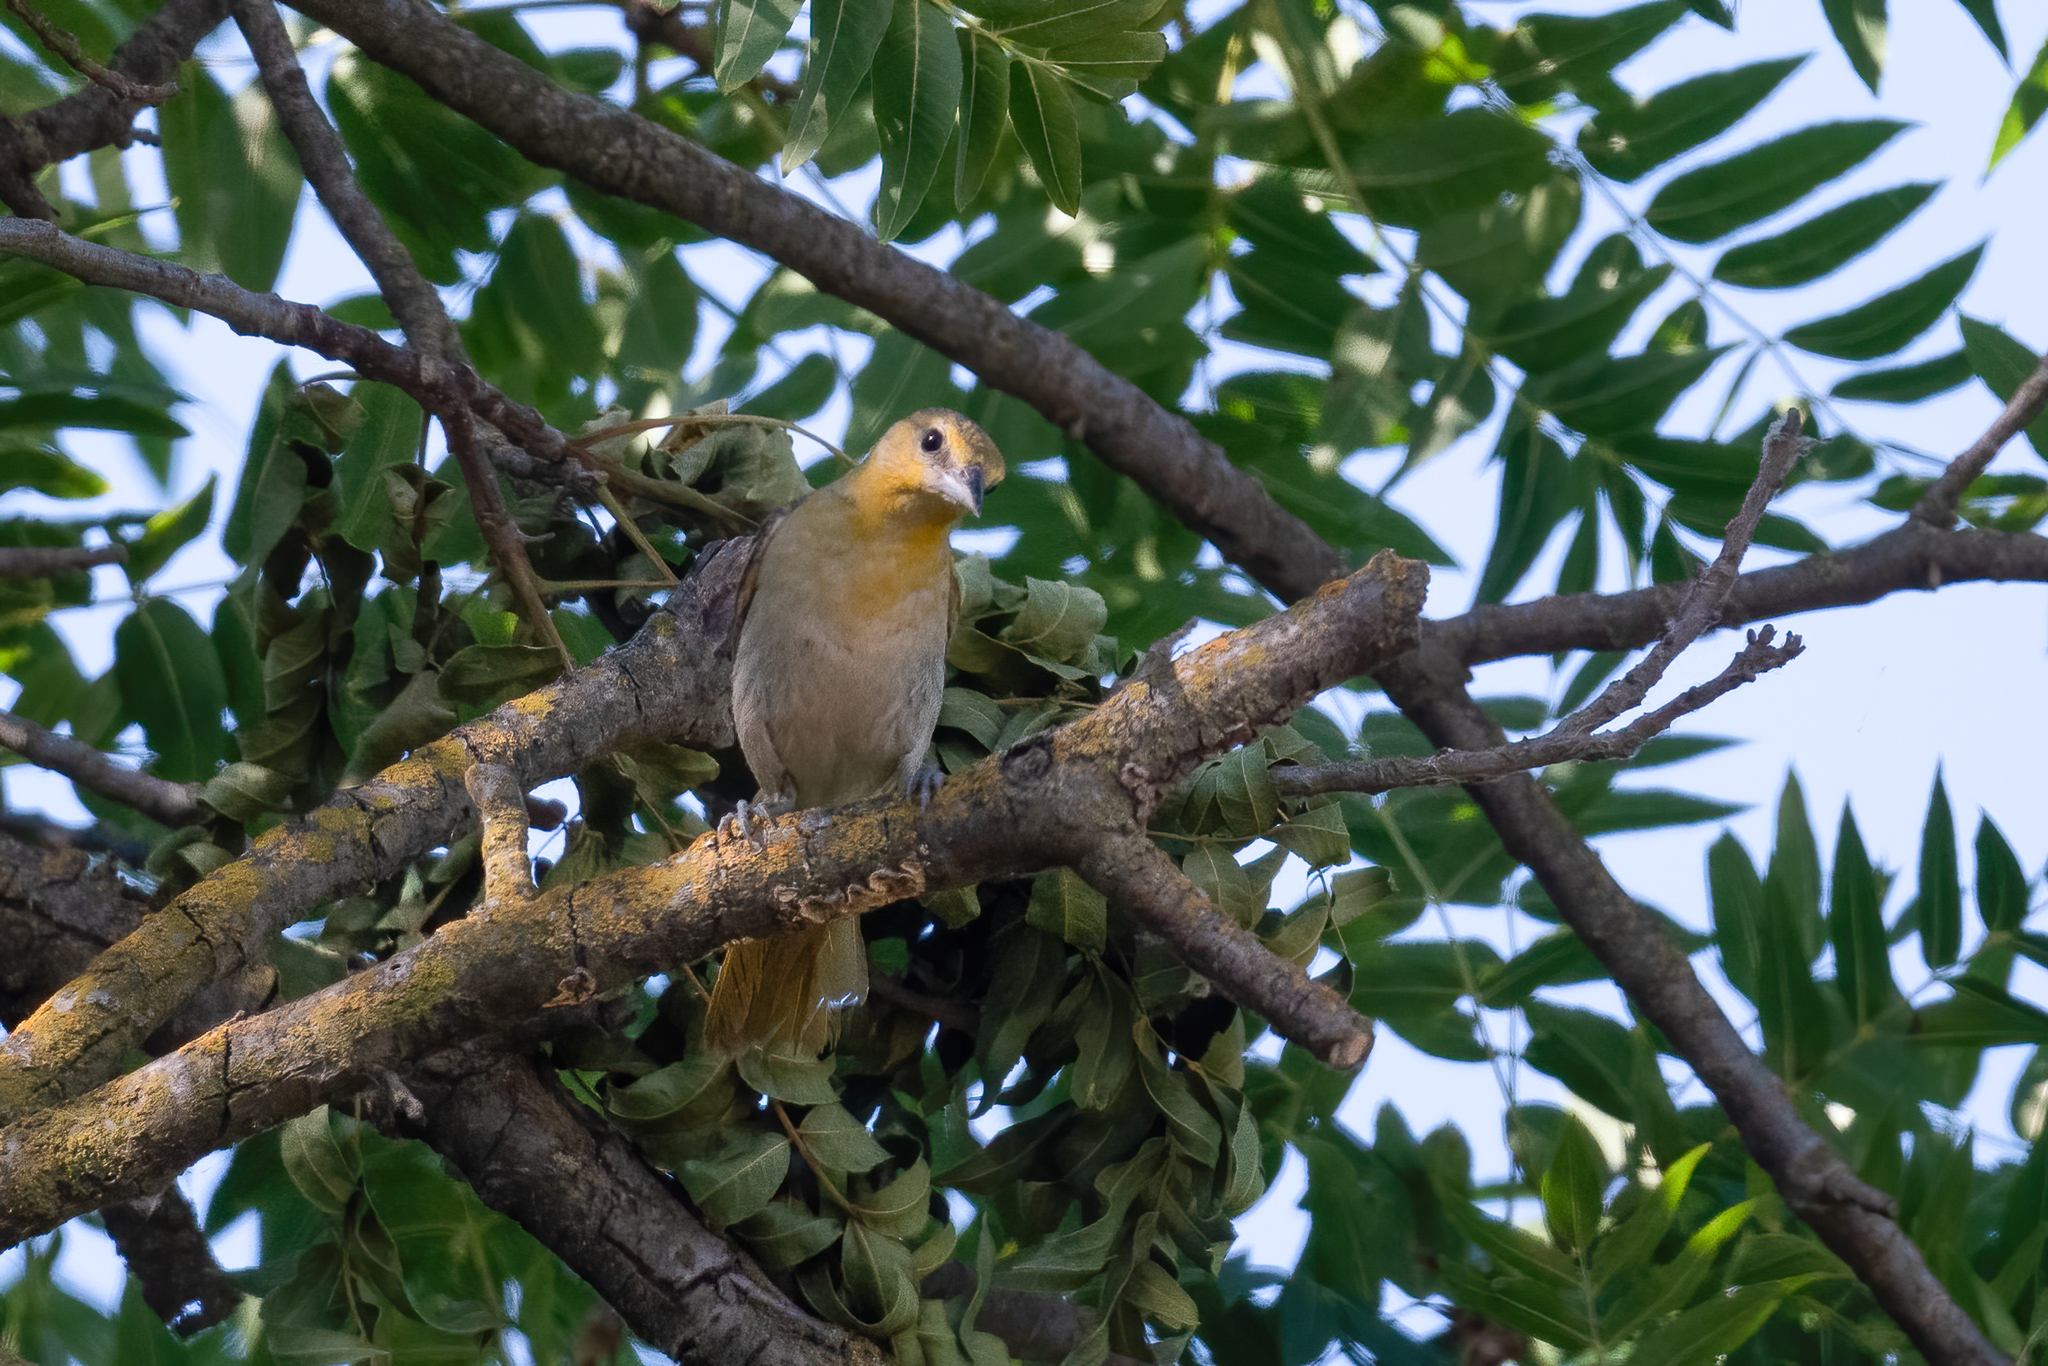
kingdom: Animalia
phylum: Chordata
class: Aves
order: Passeriformes
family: Icteridae
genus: Icterus
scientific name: Icterus bullockii
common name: Bullock's oriole
